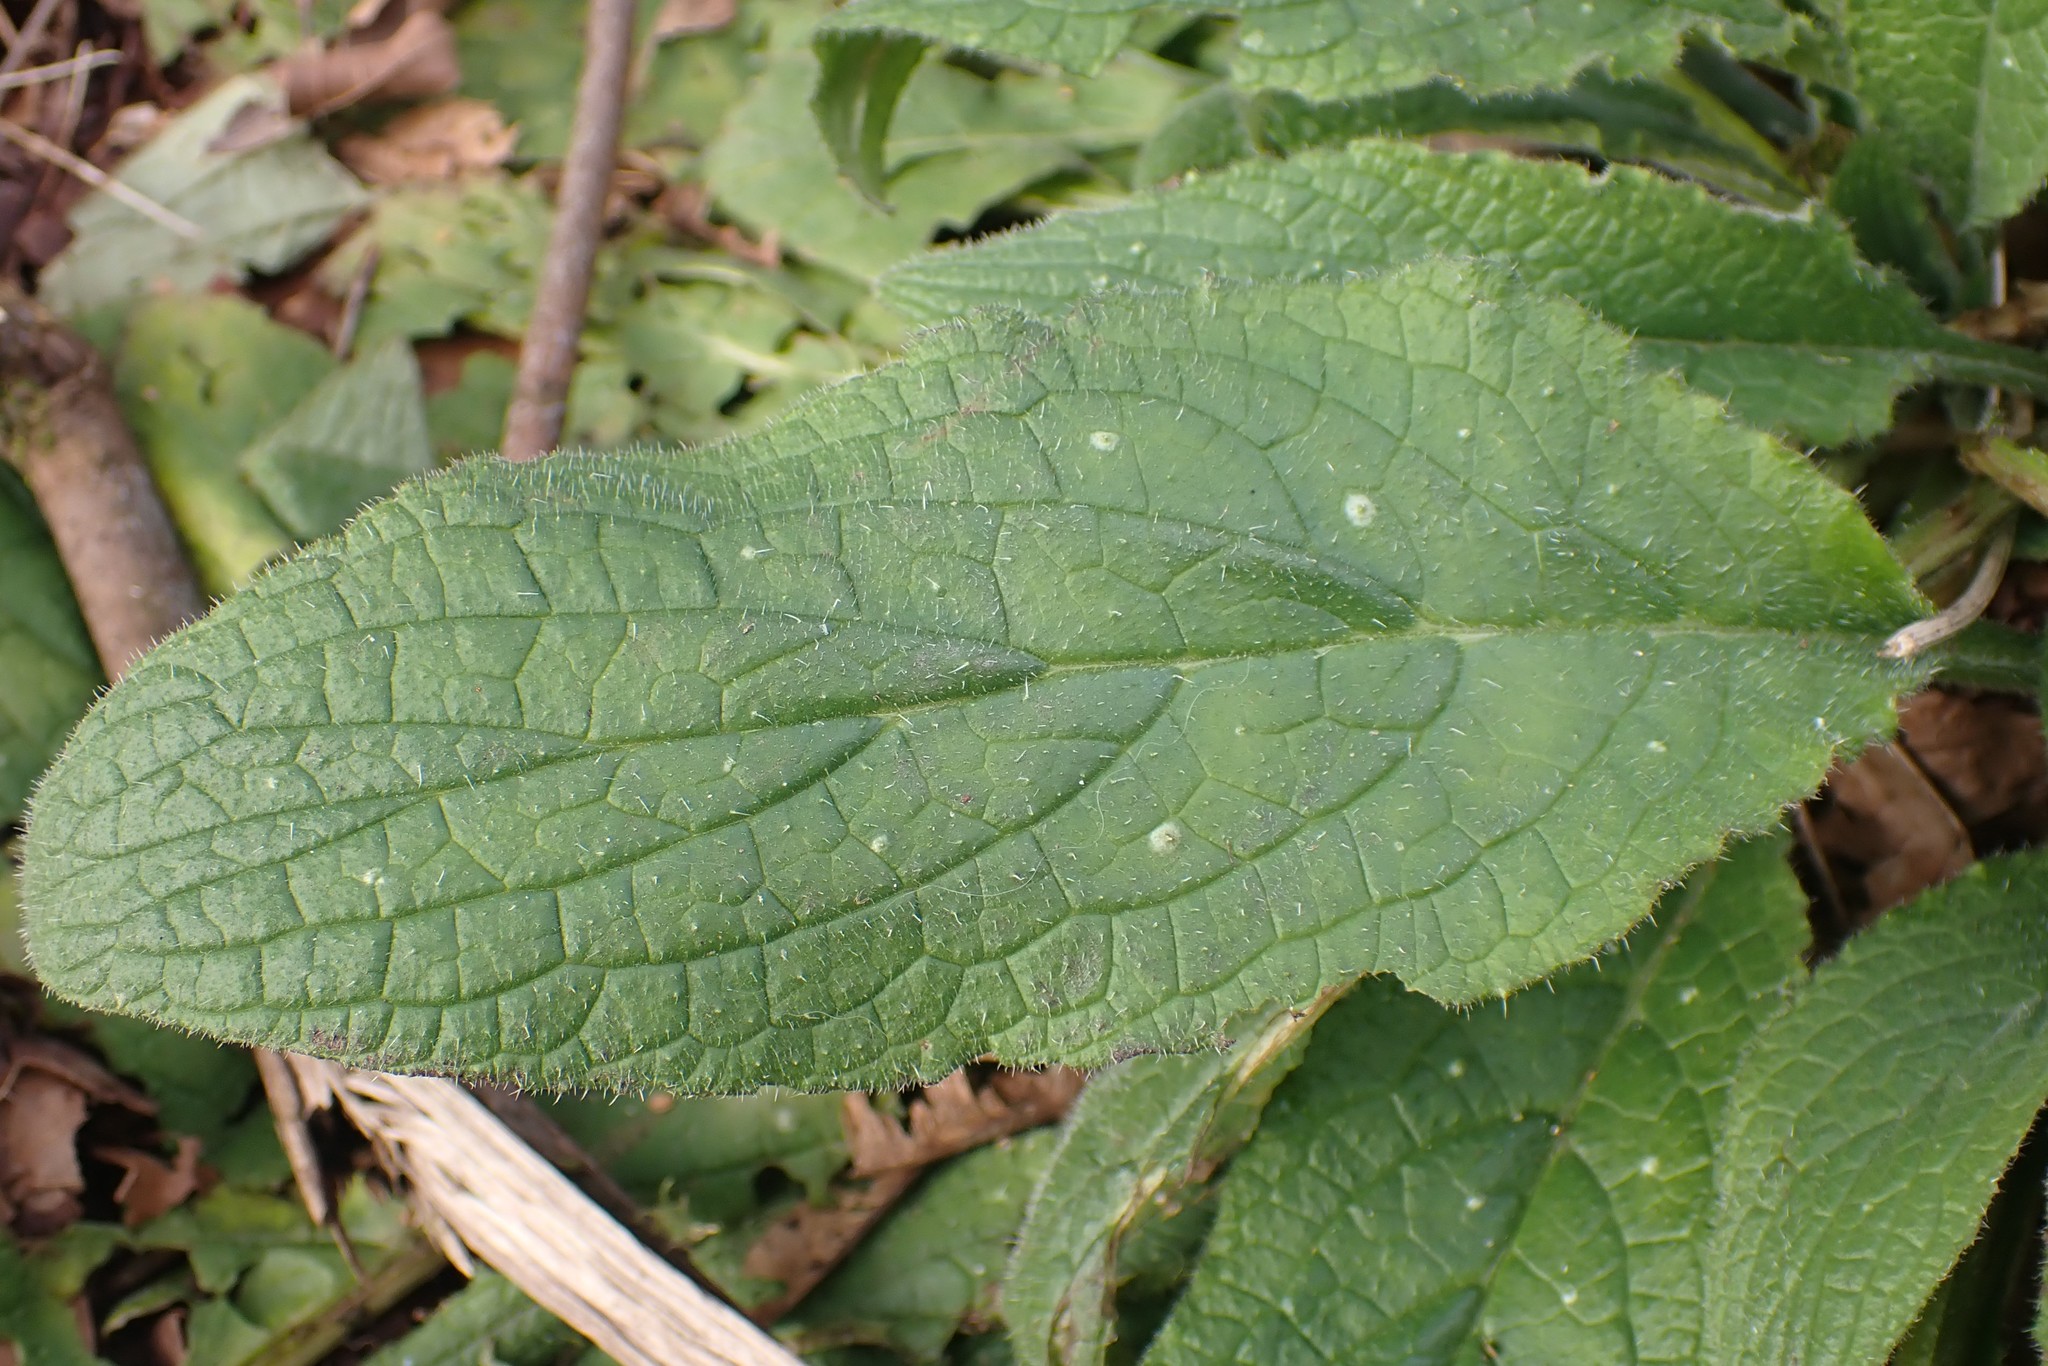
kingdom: Plantae
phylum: Tracheophyta
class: Magnoliopsida
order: Boraginales
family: Boraginaceae
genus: Pentaglottis
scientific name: Pentaglottis sempervirens
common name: Green alkanet
